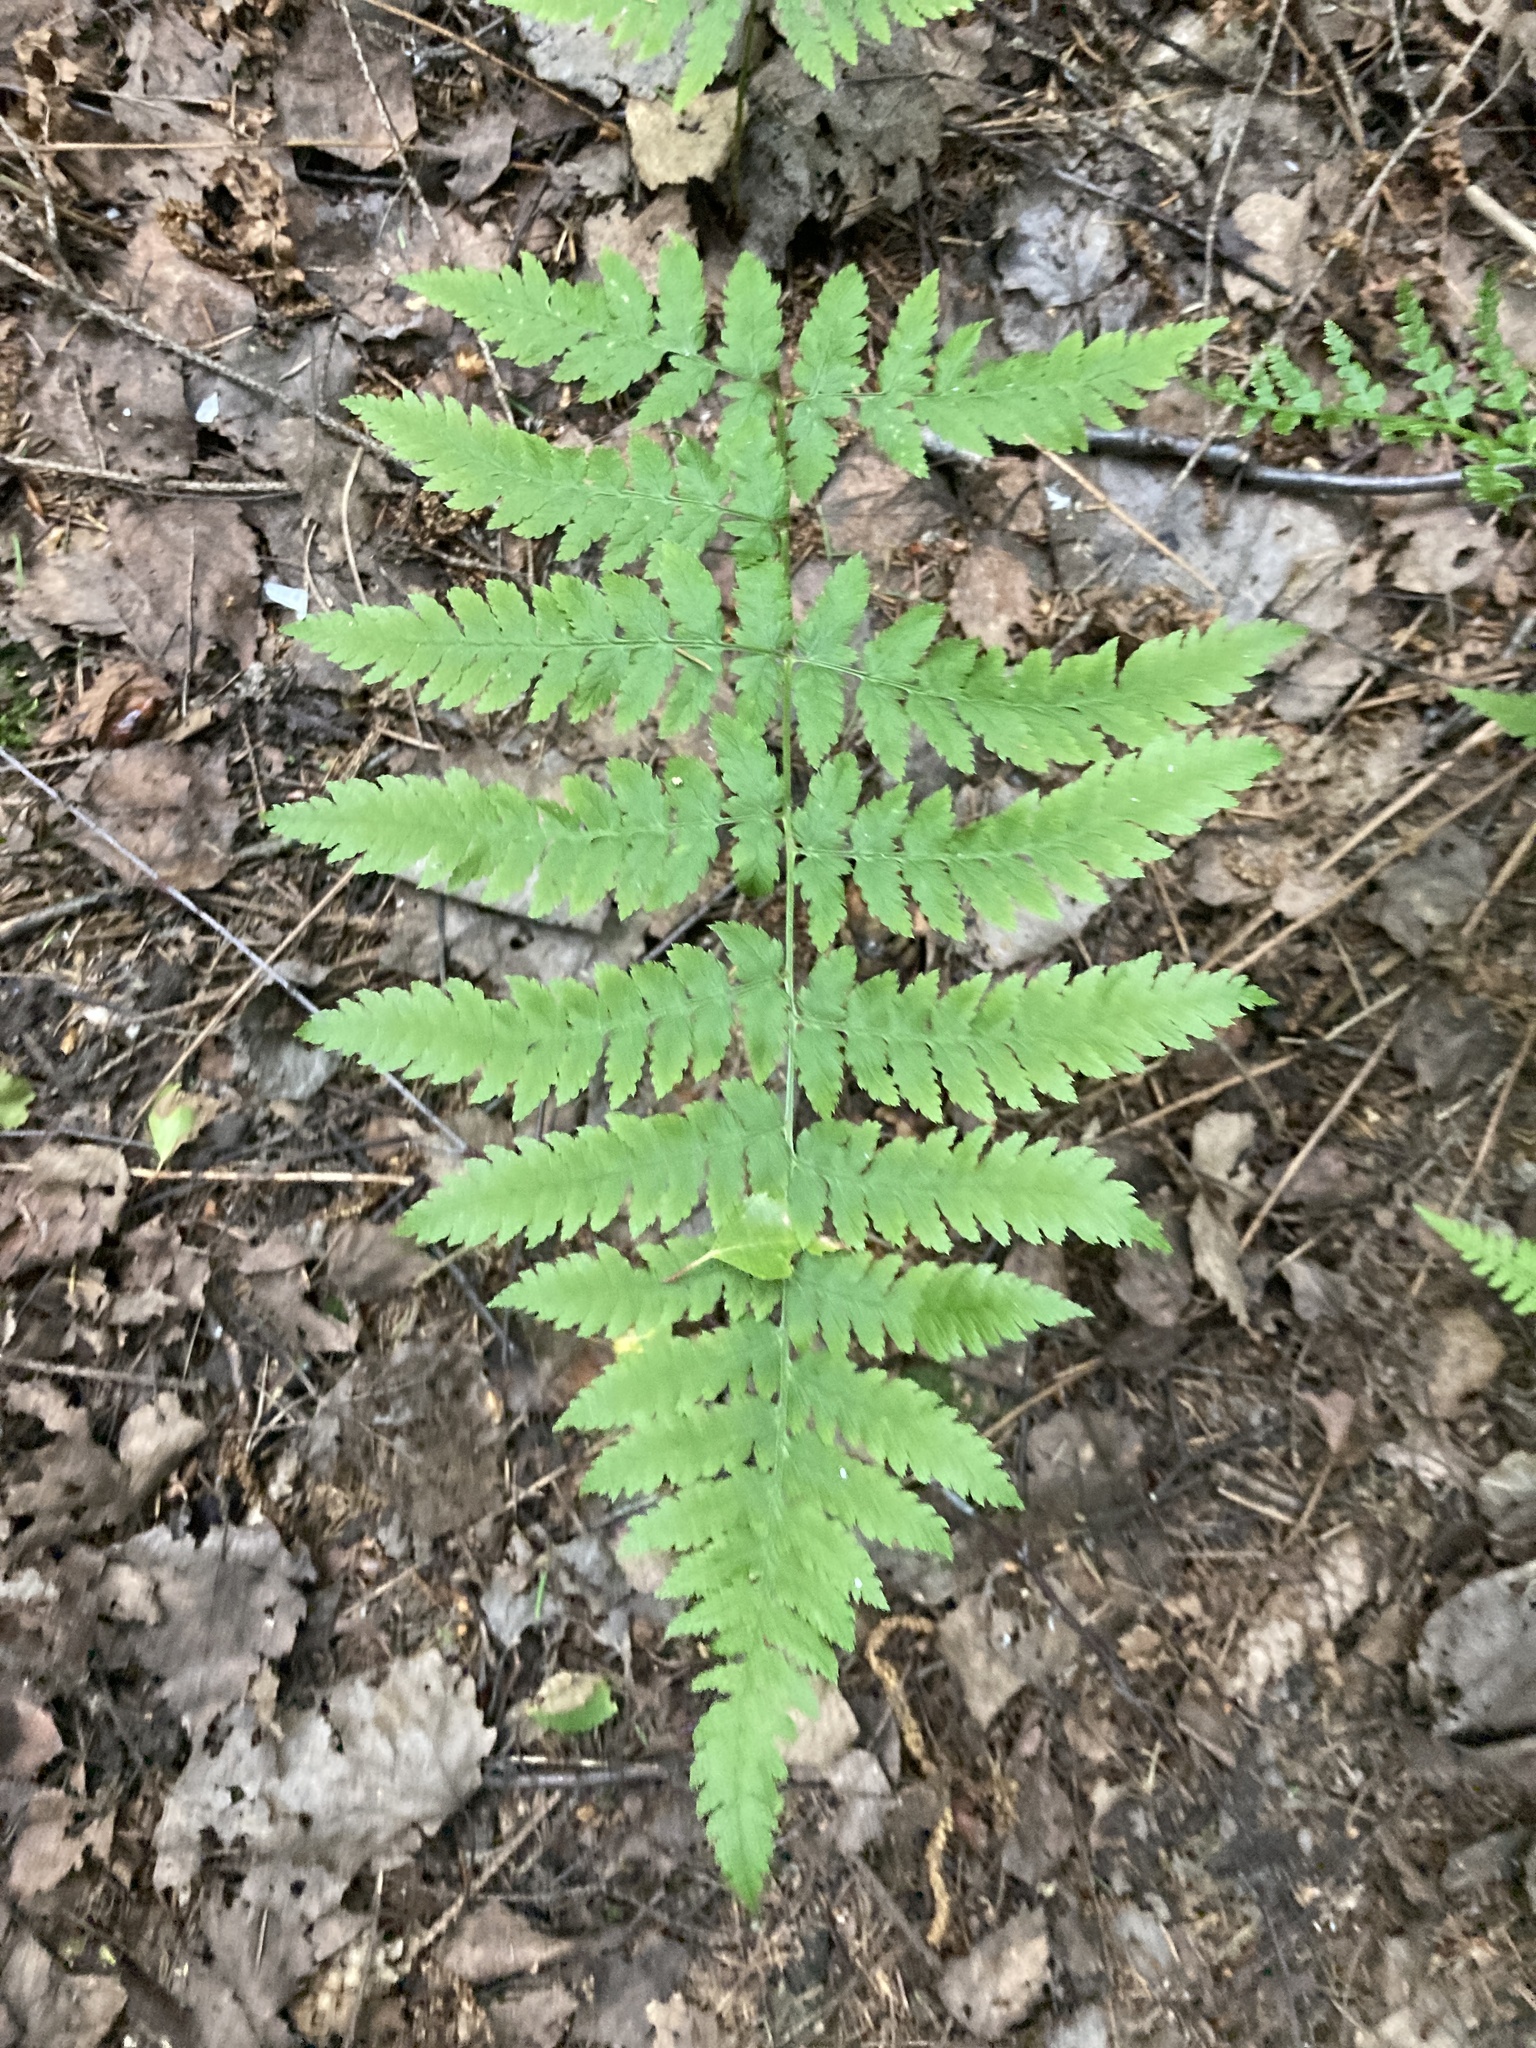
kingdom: Plantae
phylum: Tracheophyta
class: Polypodiopsida
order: Polypodiales
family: Dryopteridaceae
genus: Dryopteris
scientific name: Dryopteris carthusiana
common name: Narrow buckler-fern
